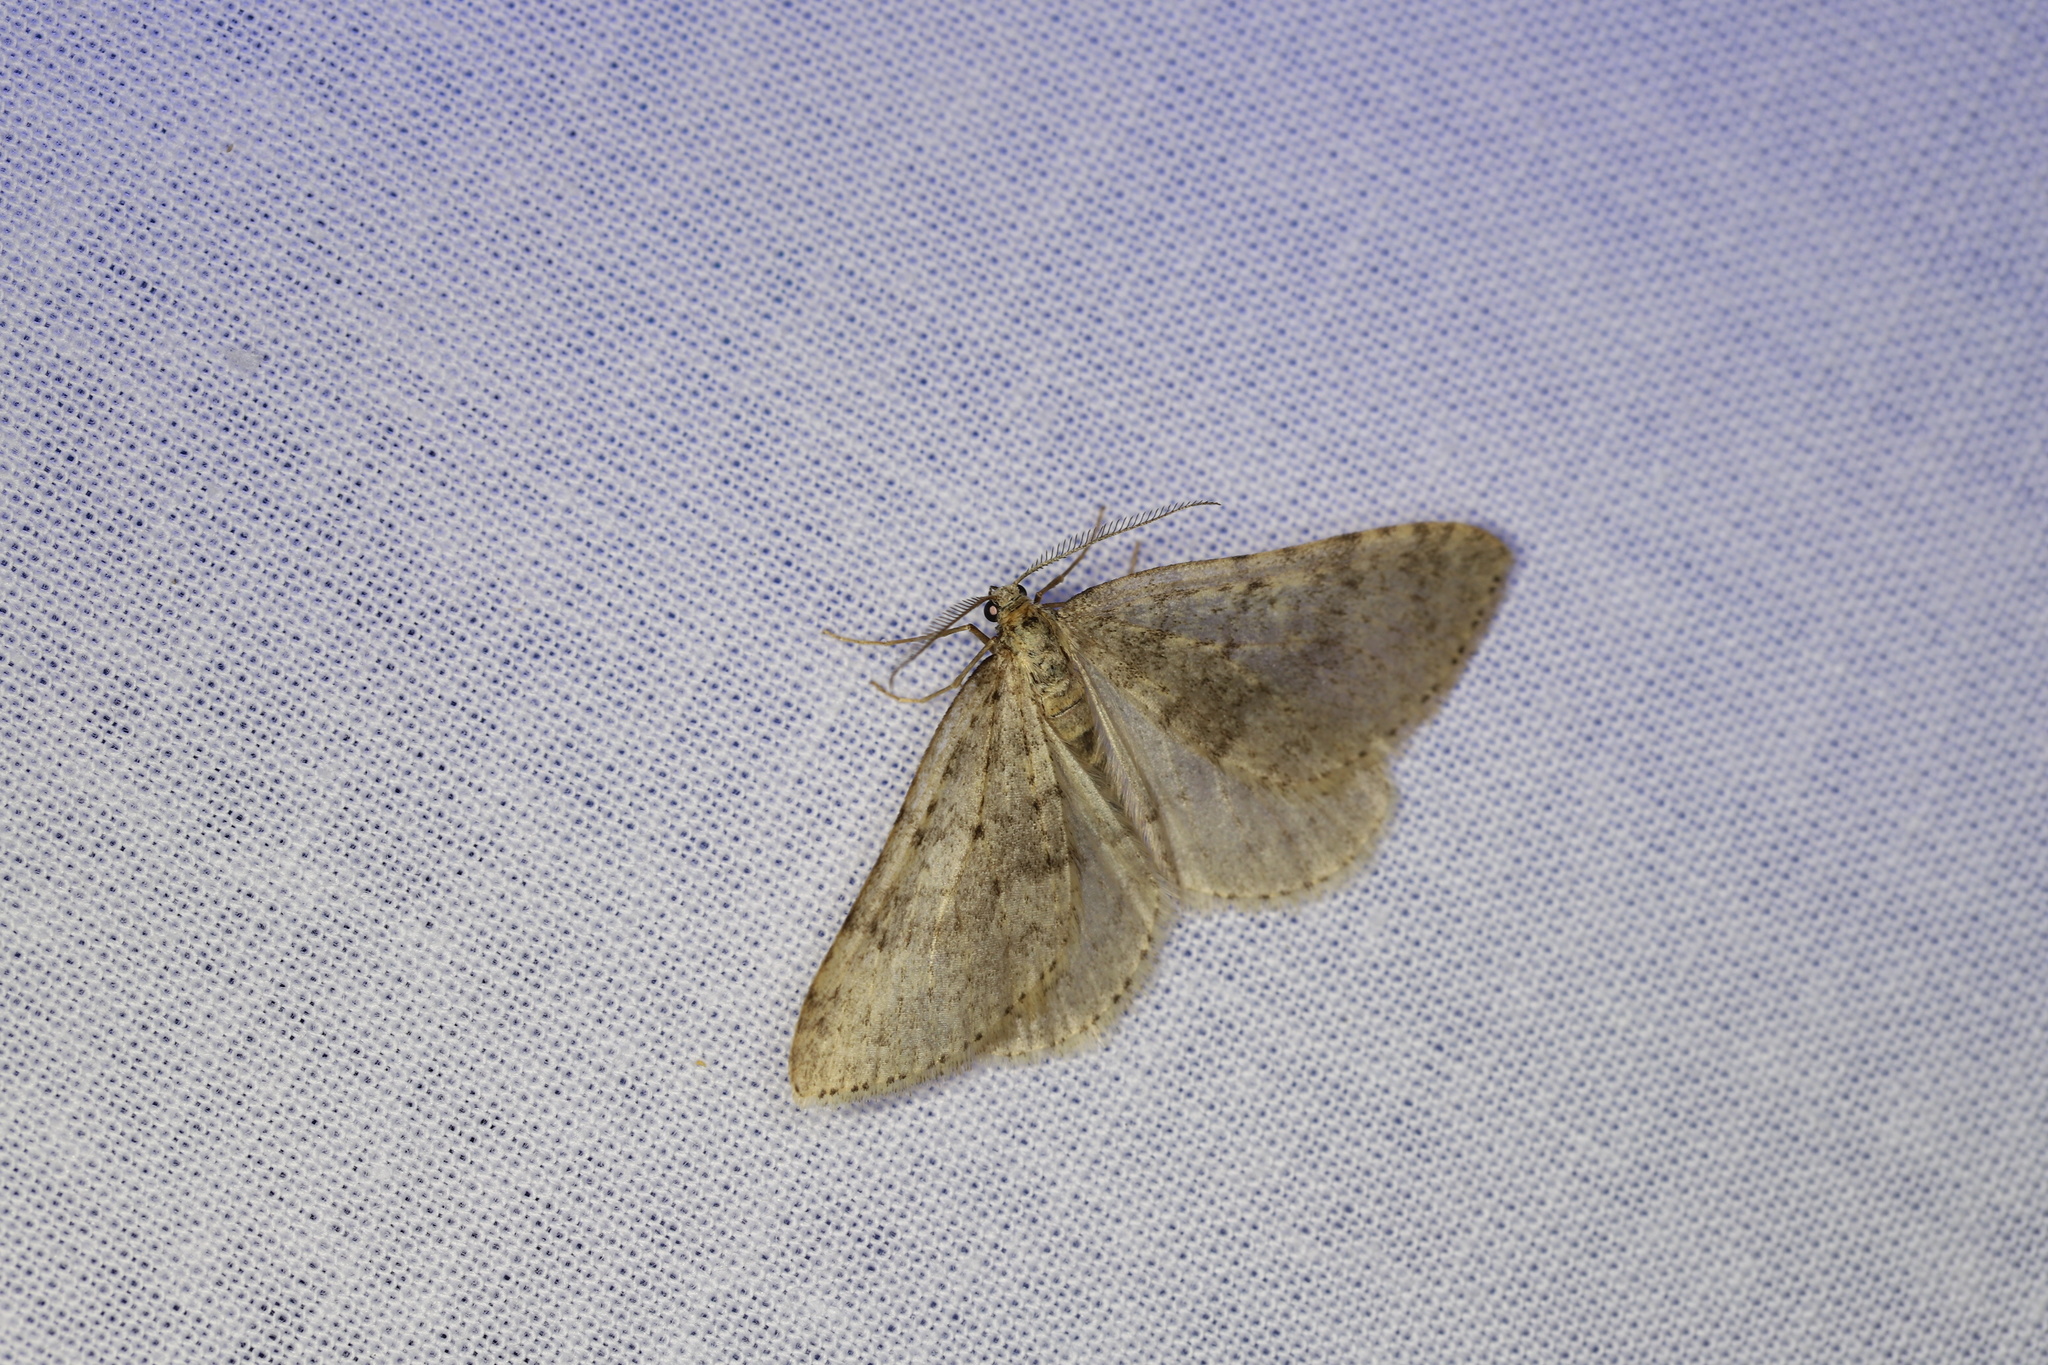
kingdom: Animalia
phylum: Arthropoda
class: Insecta
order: Lepidoptera
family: Geometridae
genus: Colostygia
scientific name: Colostygia multistrigaria
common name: Mottled grey
